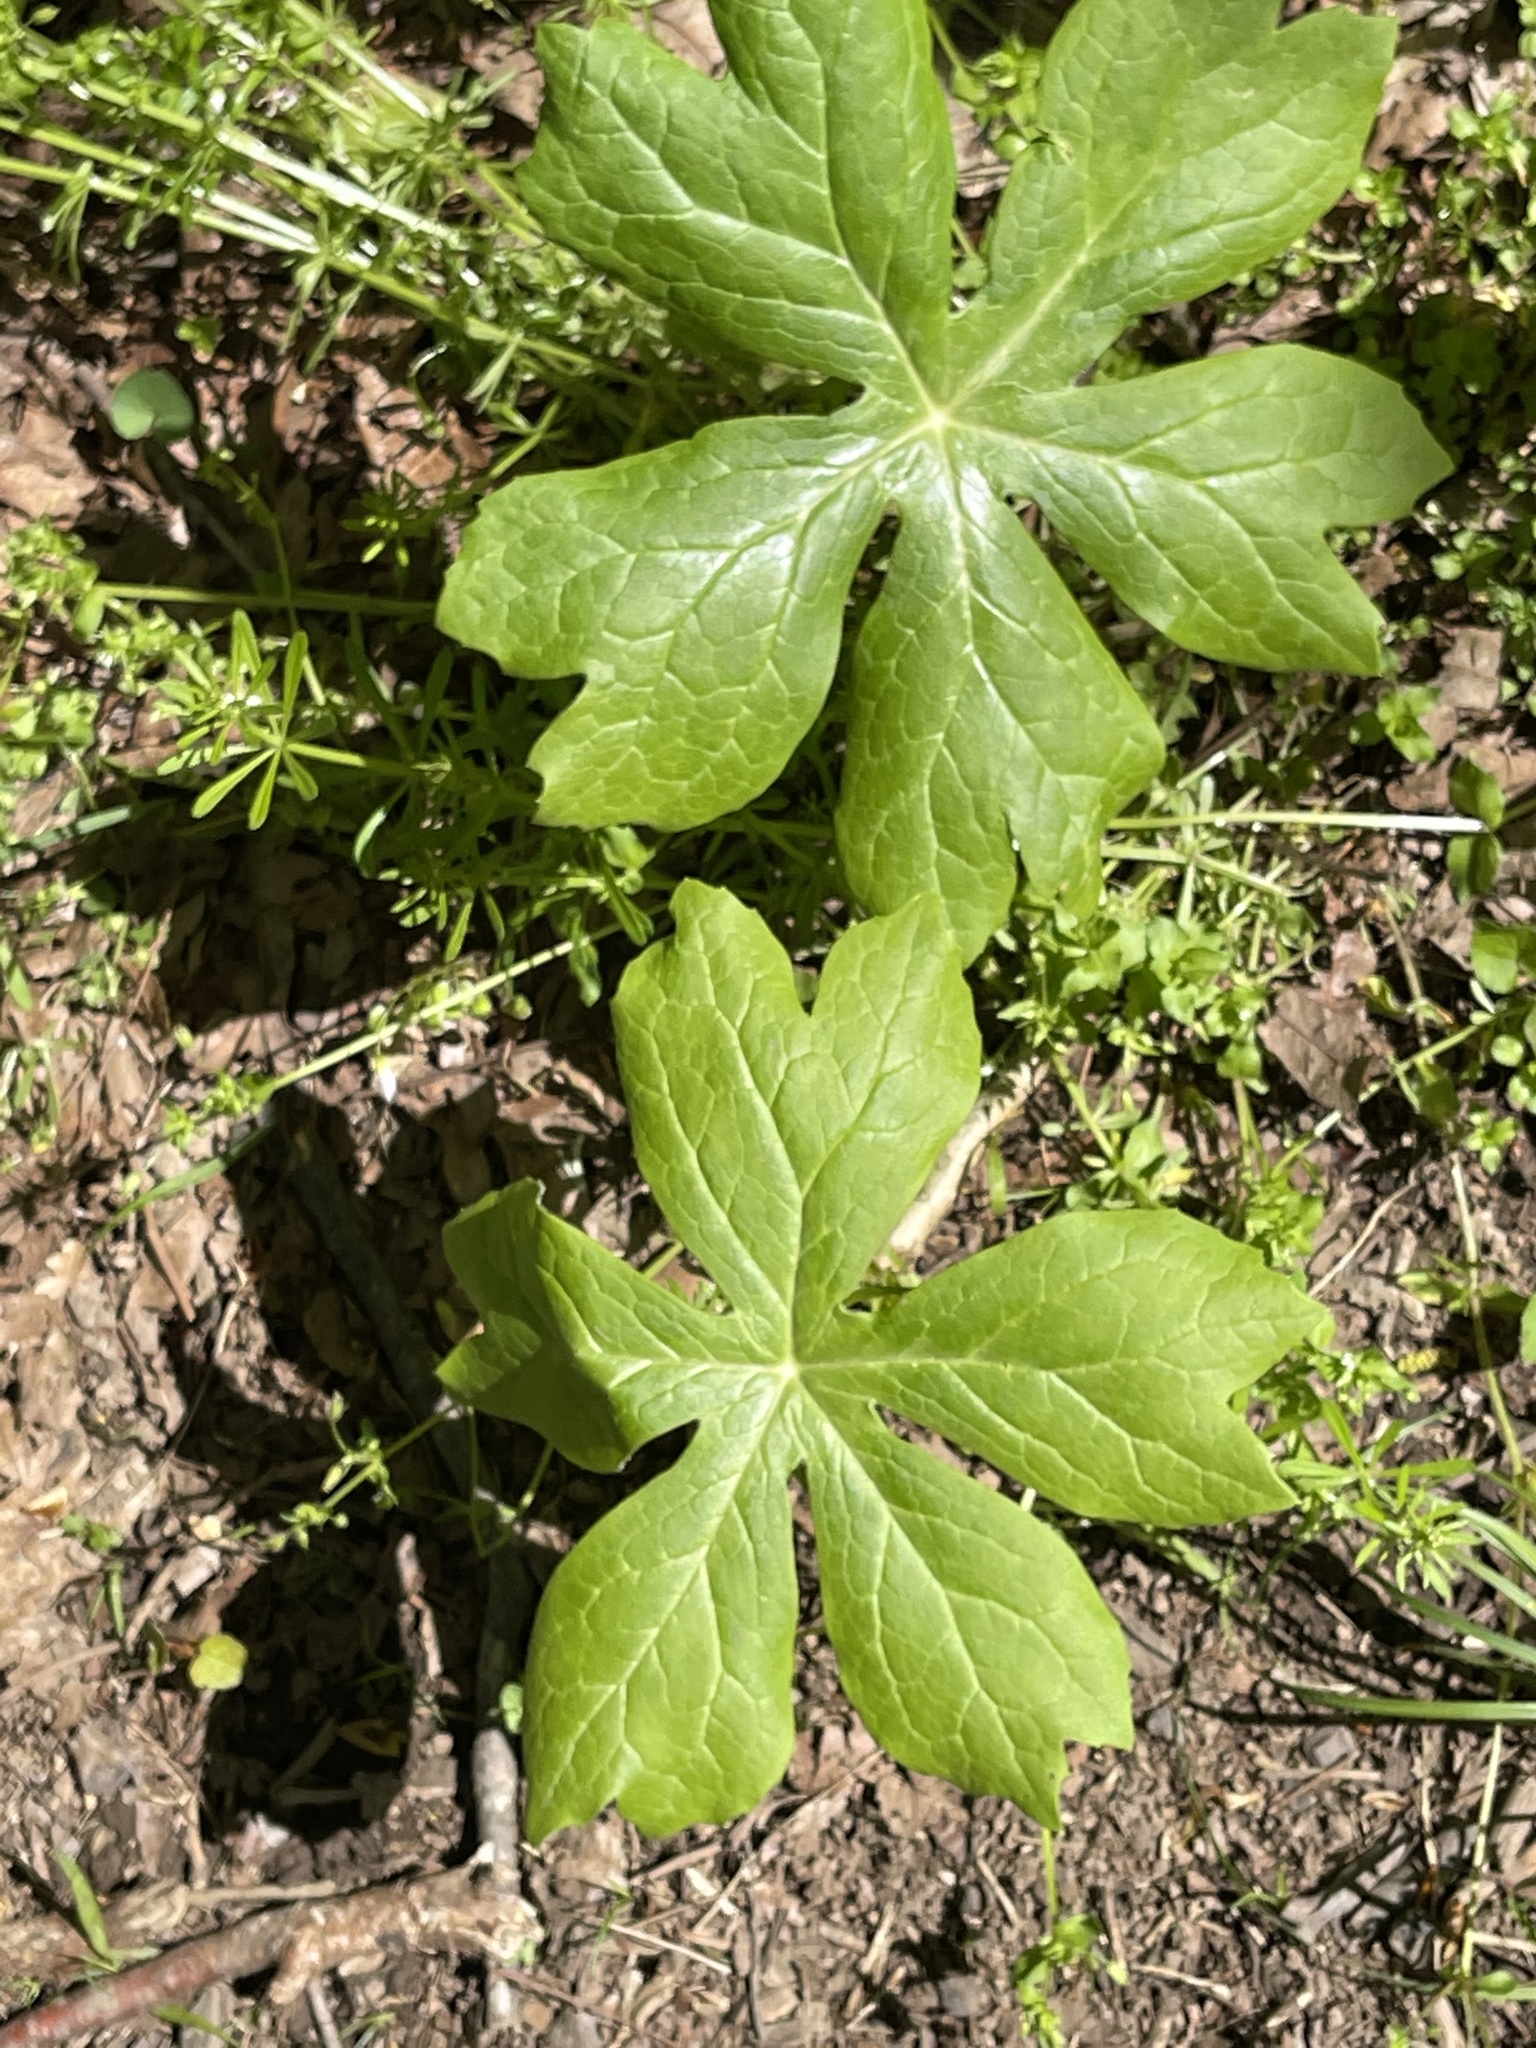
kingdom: Plantae
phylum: Tracheophyta
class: Magnoliopsida
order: Ranunculales
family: Berberidaceae
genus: Podophyllum
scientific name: Podophyllum peltatum
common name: Wild mandrake
